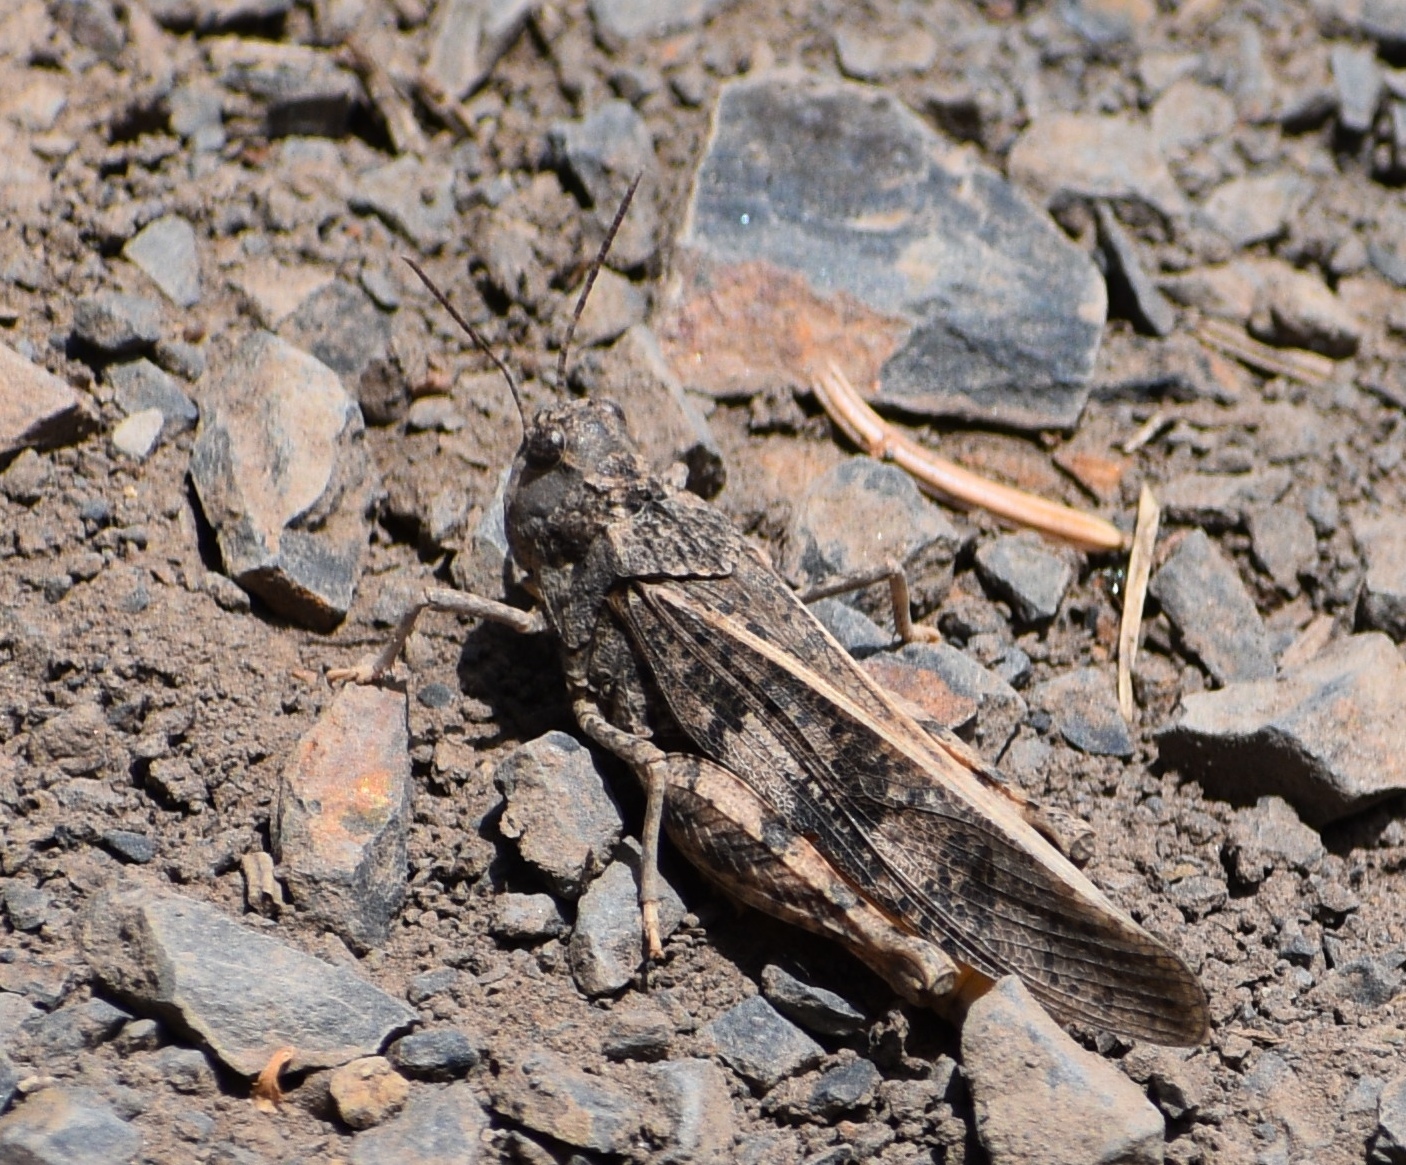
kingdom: Animalia
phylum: Arthropoda
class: Insecta
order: Orthoptera
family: Acrididae
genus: Cratypedes
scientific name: Cratypedes neglectus
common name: Pronotal range grasshopper
